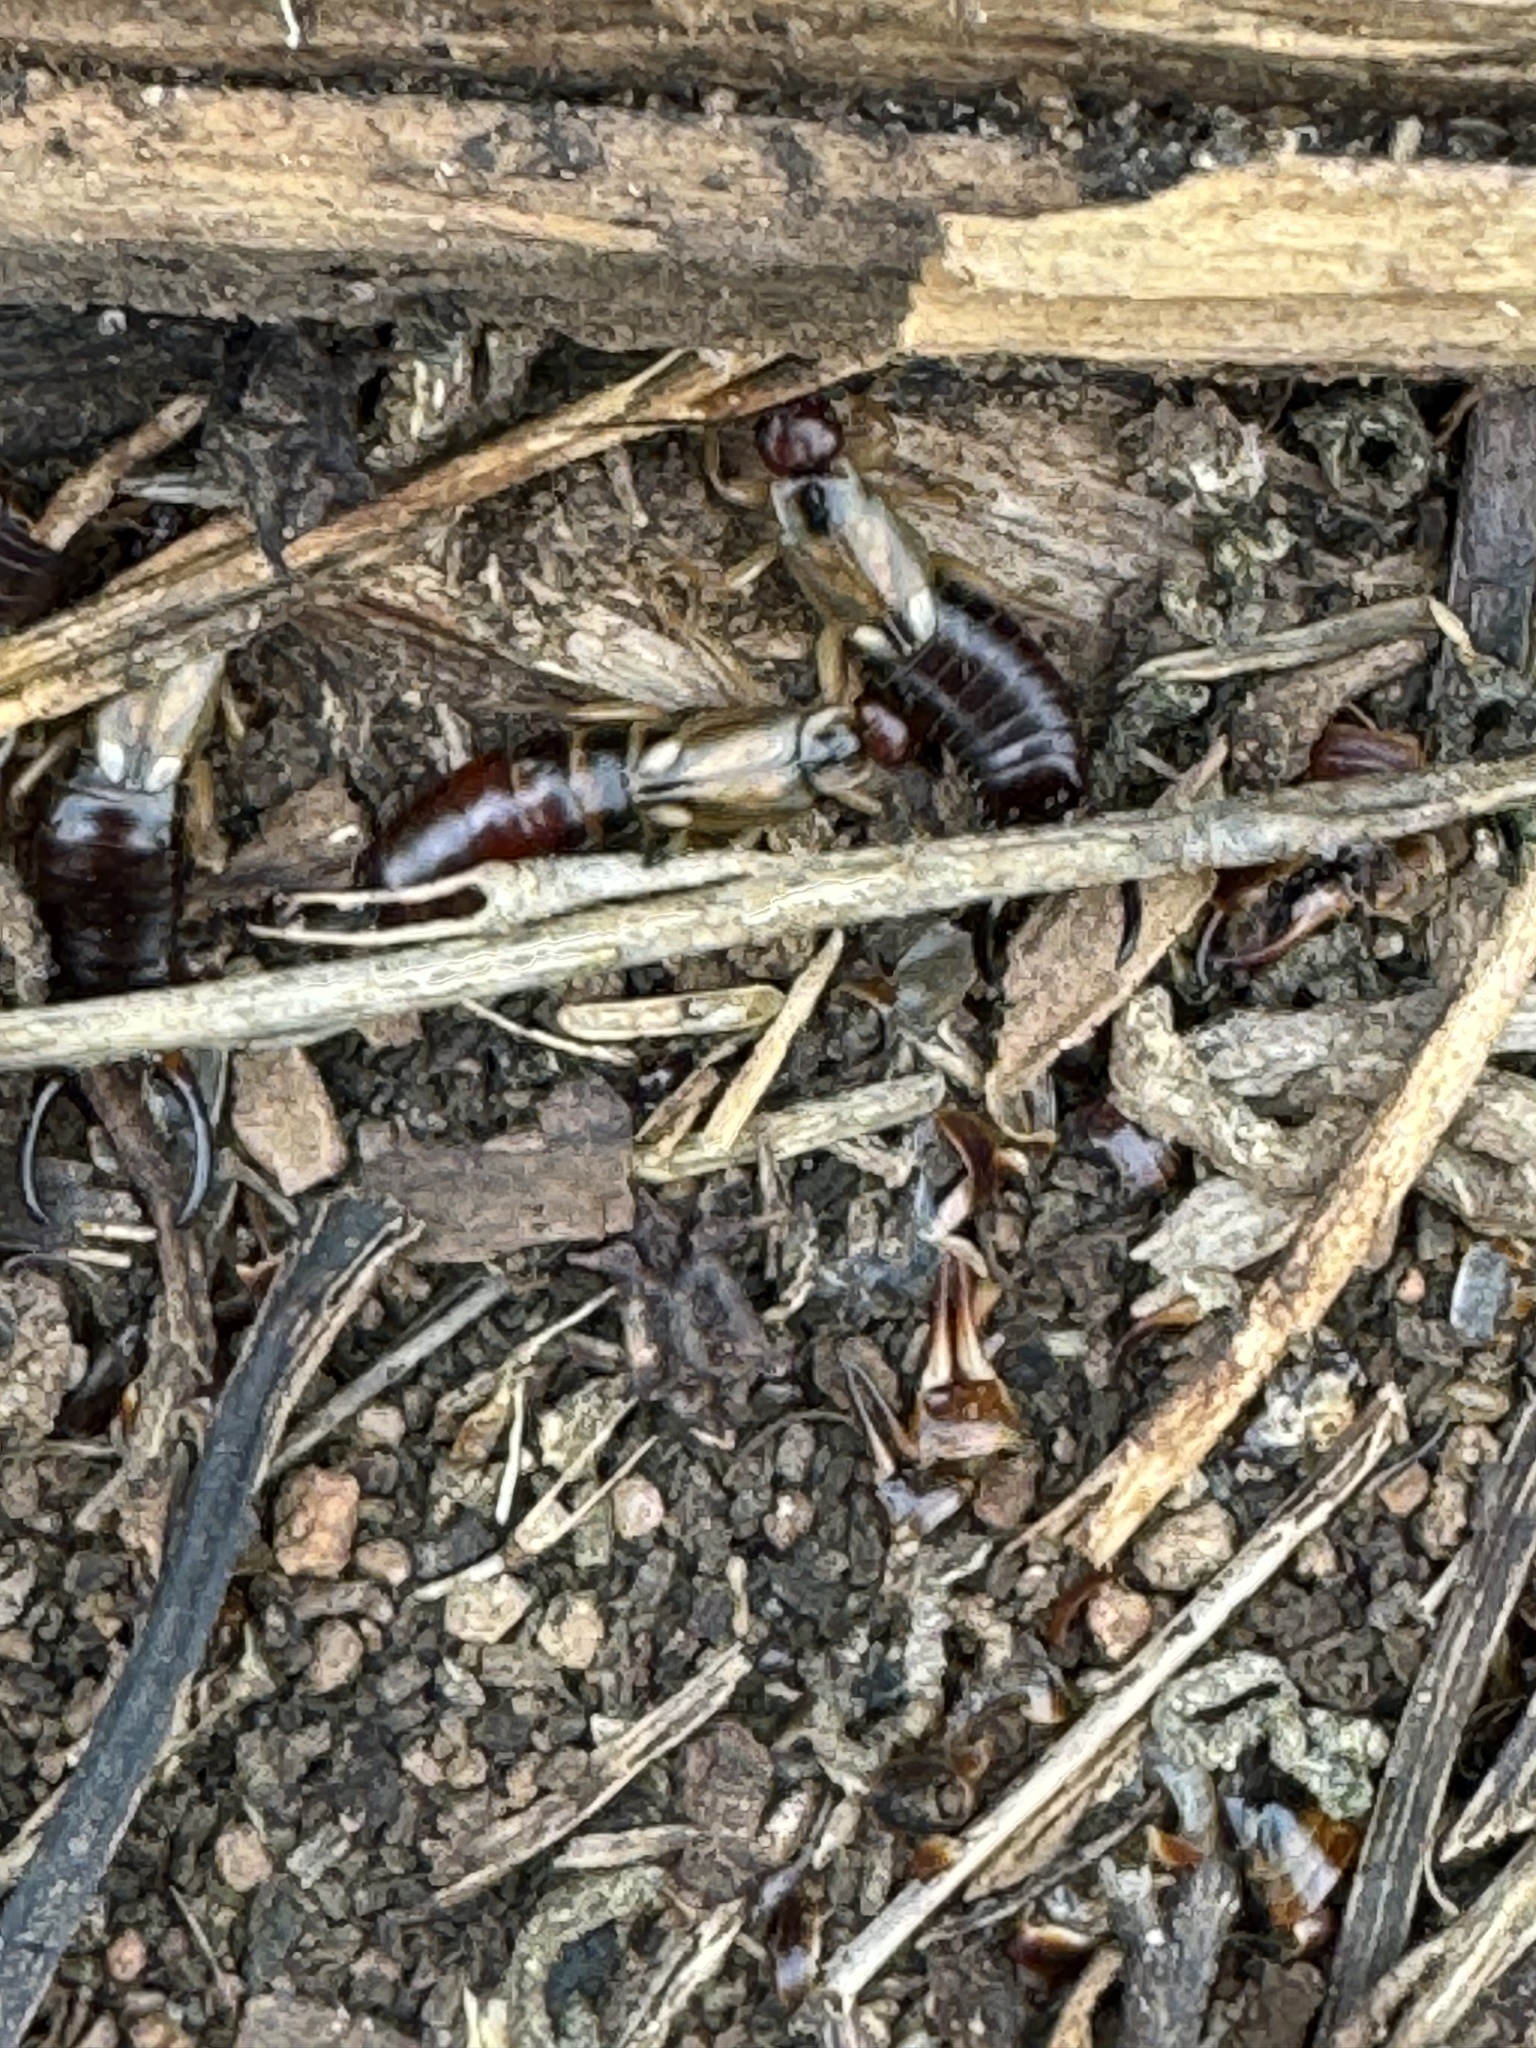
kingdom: Animalia
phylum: Arthropoda
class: Insecta
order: Dermaptera
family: Forficulidae
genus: Forficula
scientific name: Forficula dentata
